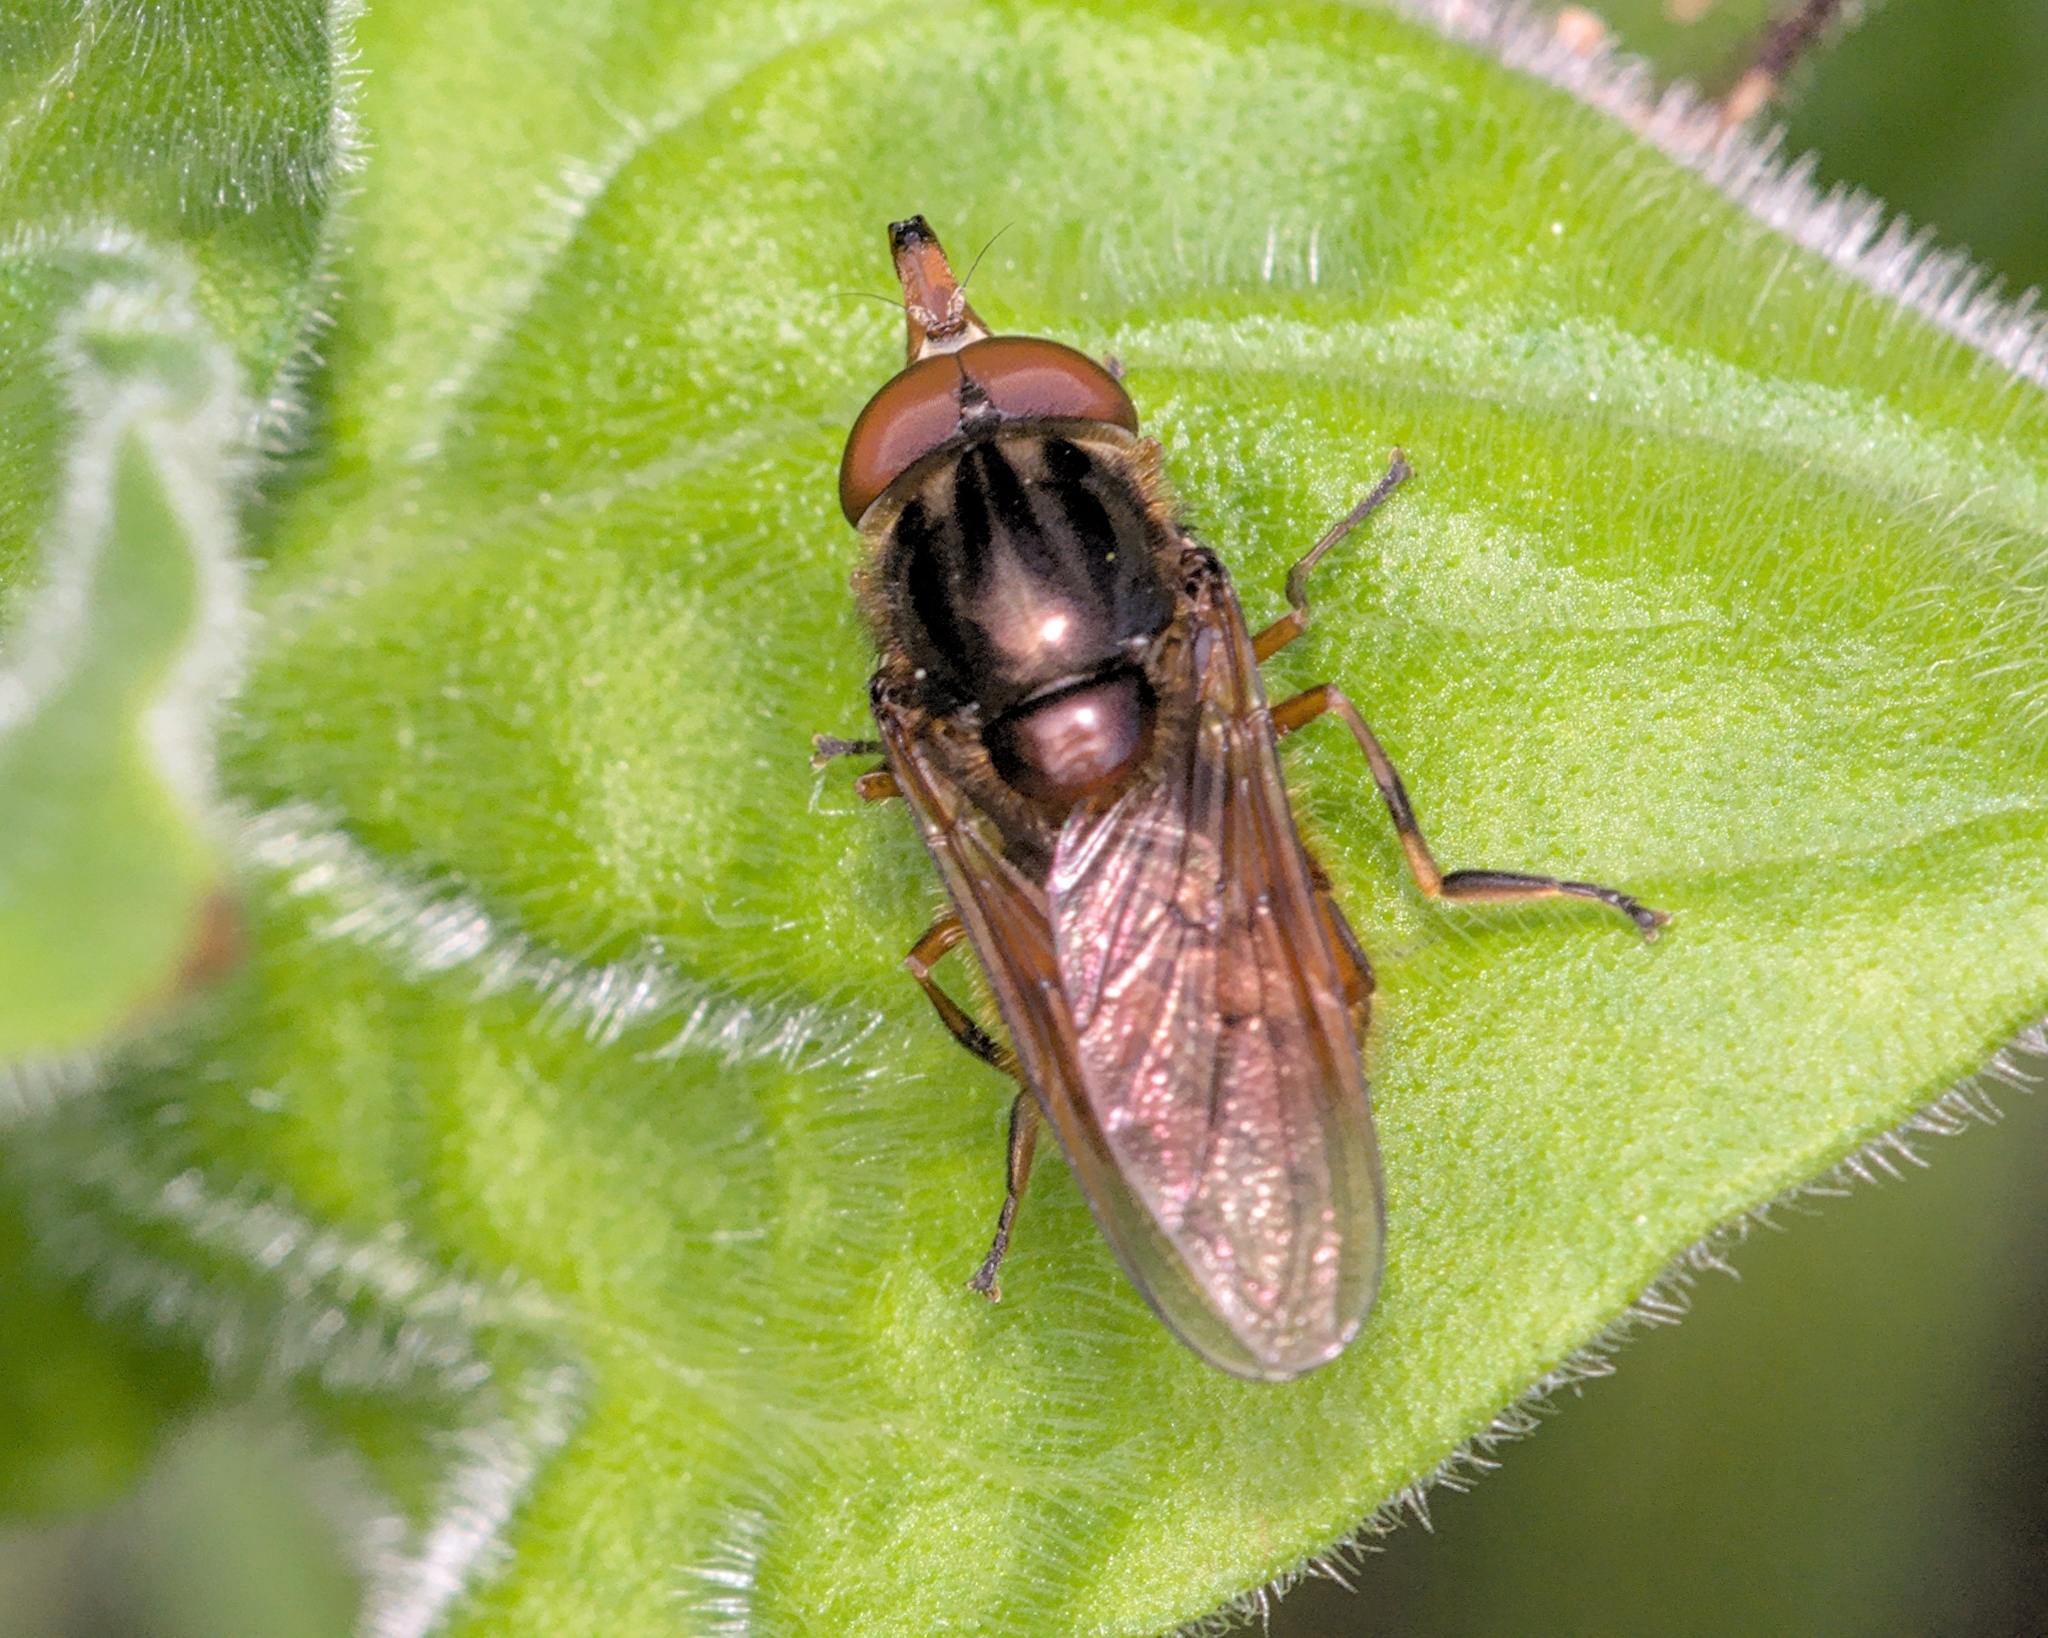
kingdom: Animalia
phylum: Arthropoda
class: Insecta
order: Diptera
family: Syrphidae
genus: Rhingia
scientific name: Rhingia campestris
